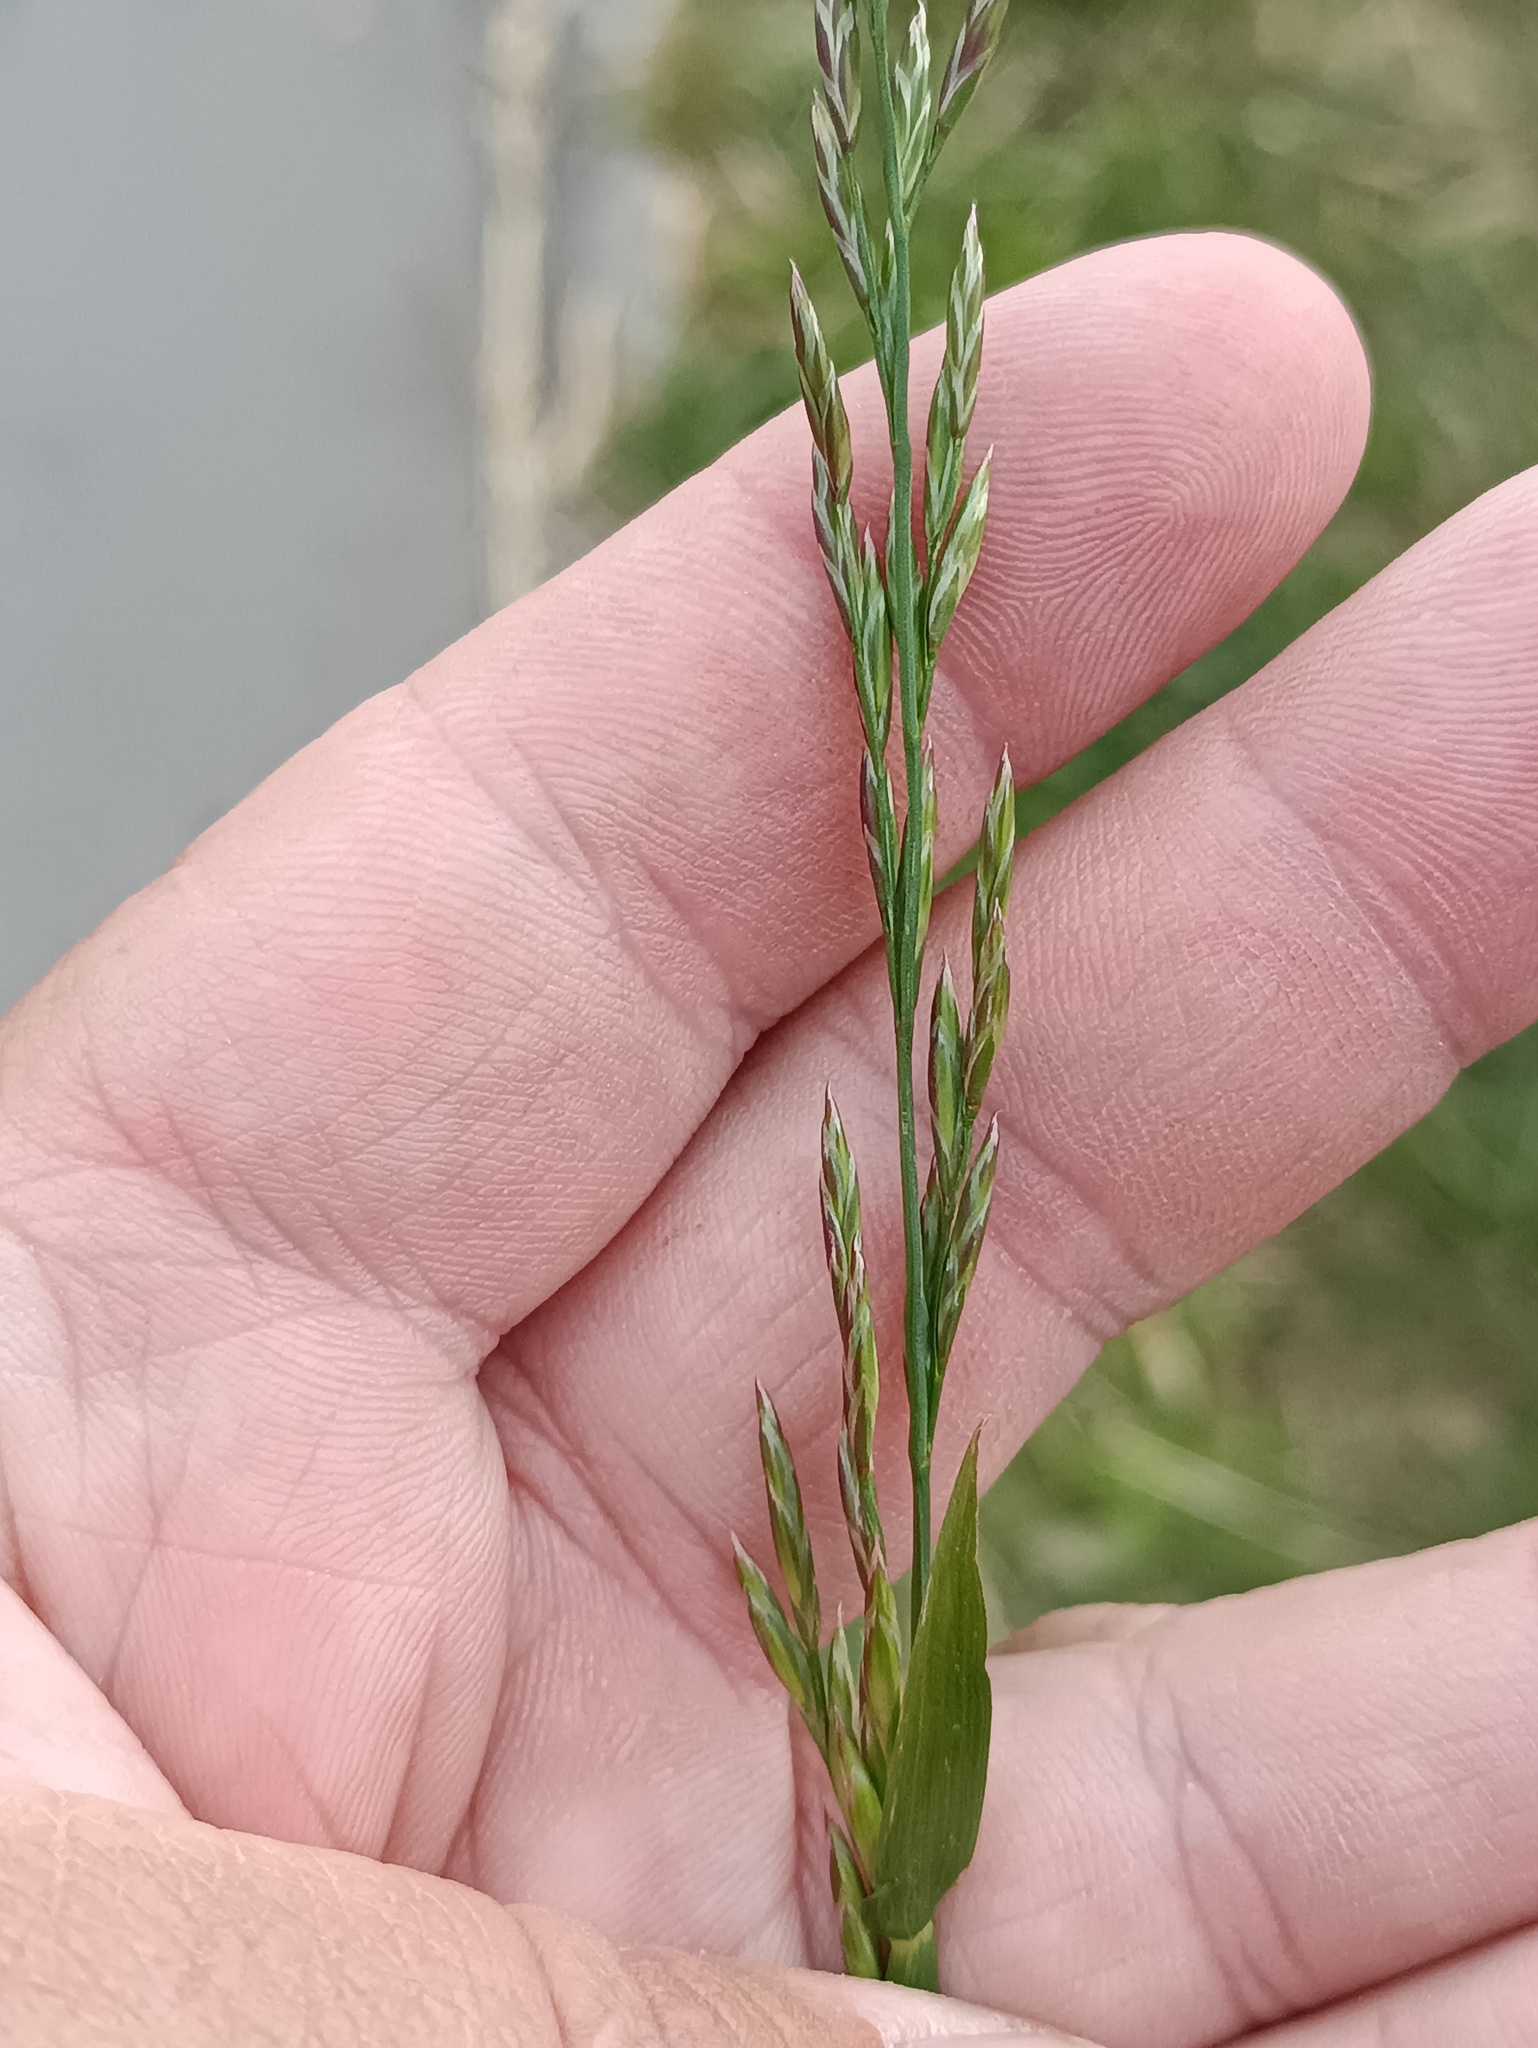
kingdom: Plantae
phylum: Tracheophyta
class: Liliopsida
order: Poales
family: Poaceae
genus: Lolium
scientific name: Lolium pratense
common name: Dover grass
